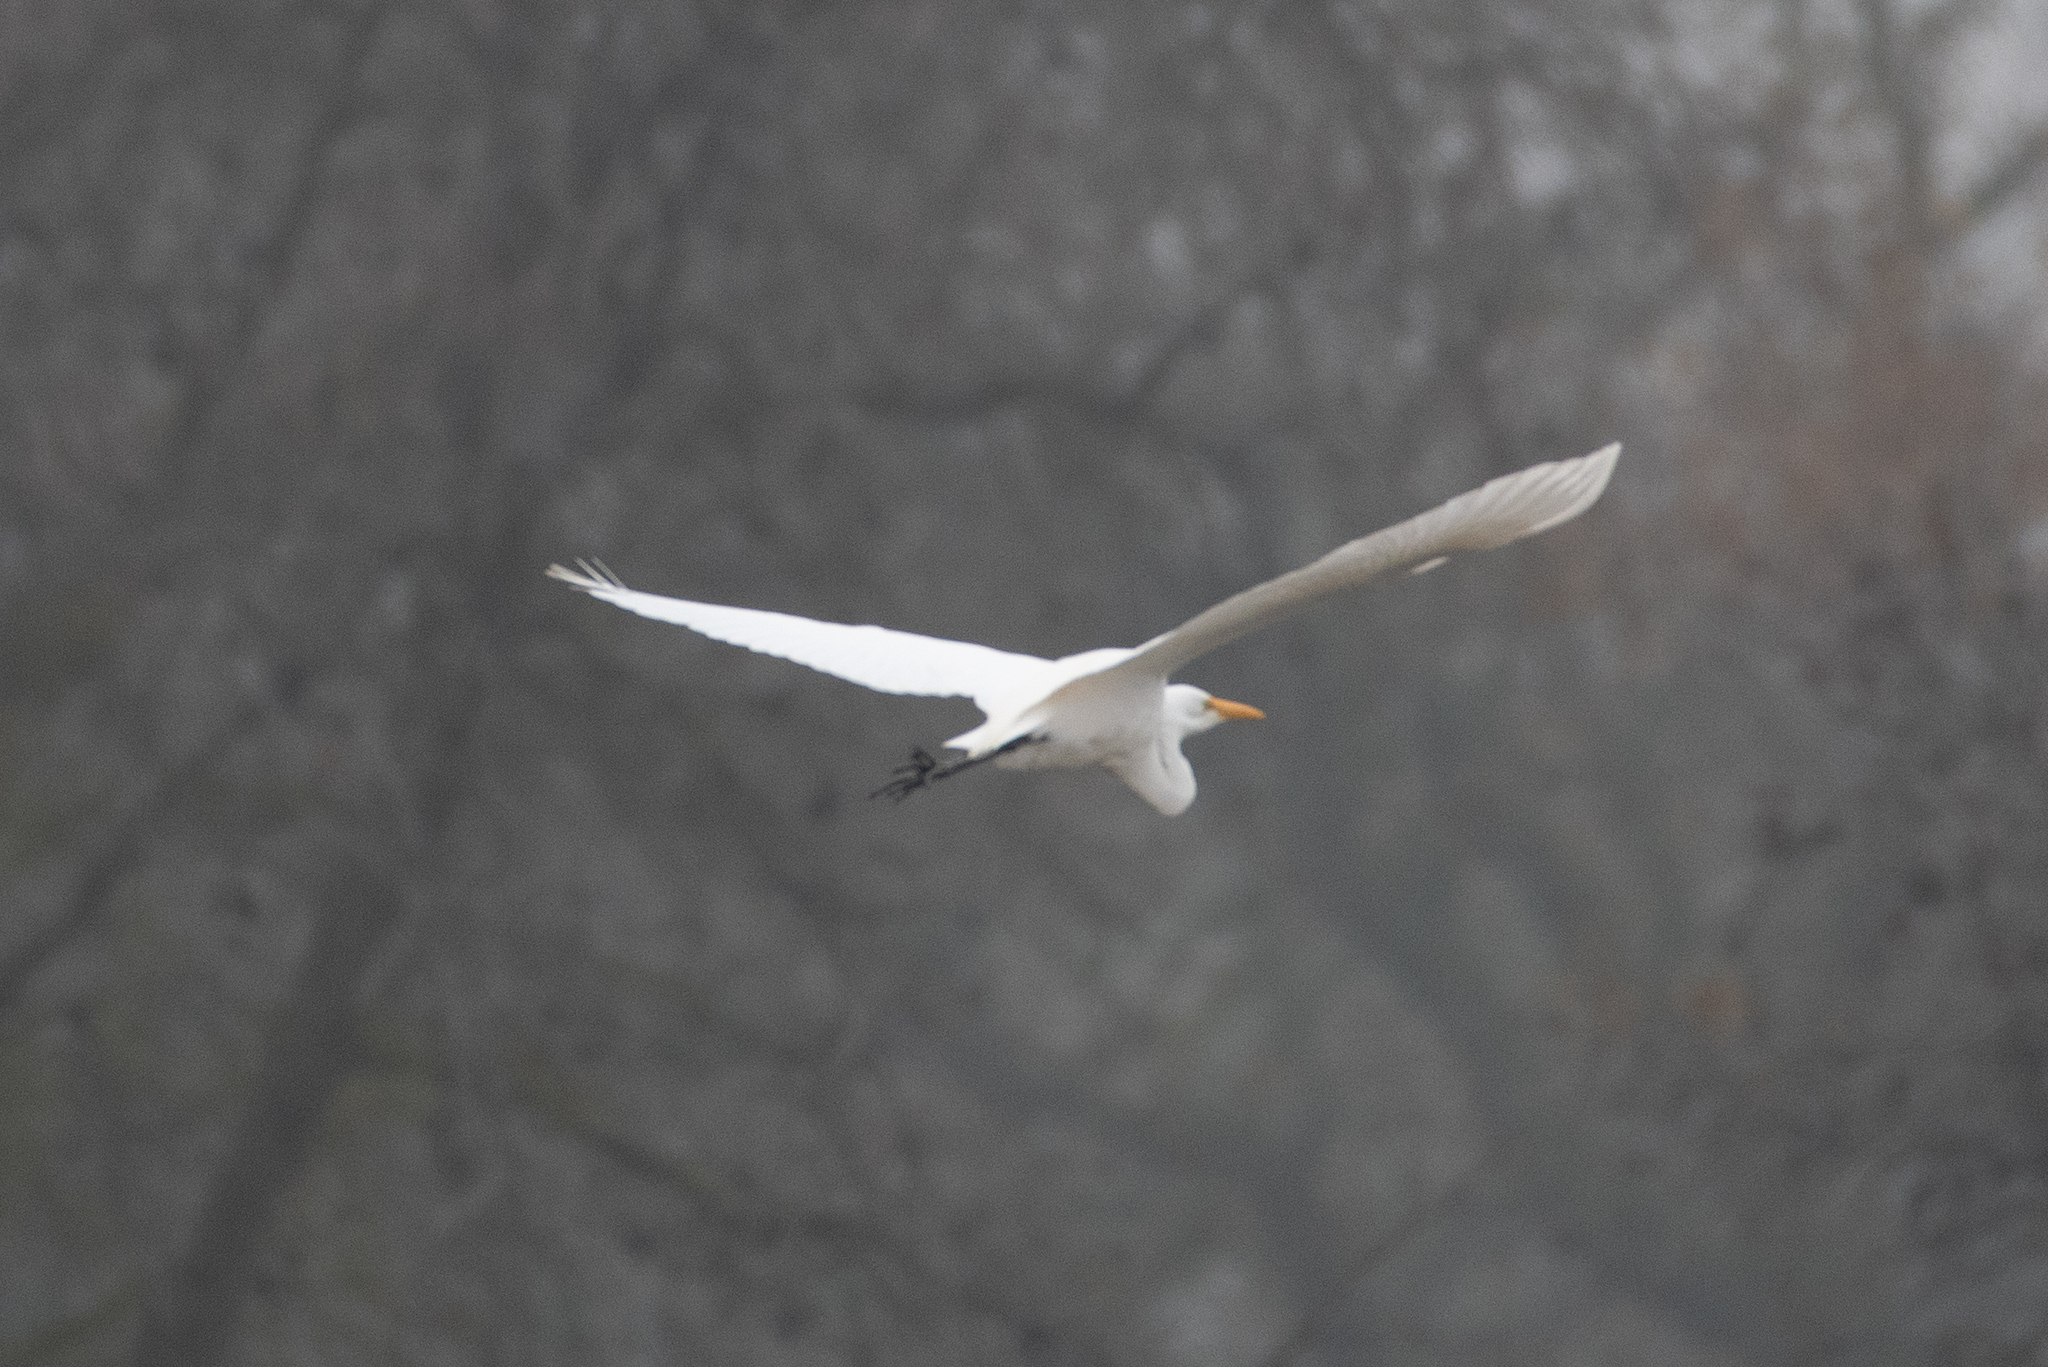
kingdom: Animalia
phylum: Chordata
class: Aves
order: Pelecaniformes
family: Ardeidae
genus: Ardea
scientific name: Ardea alba
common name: Great egret
